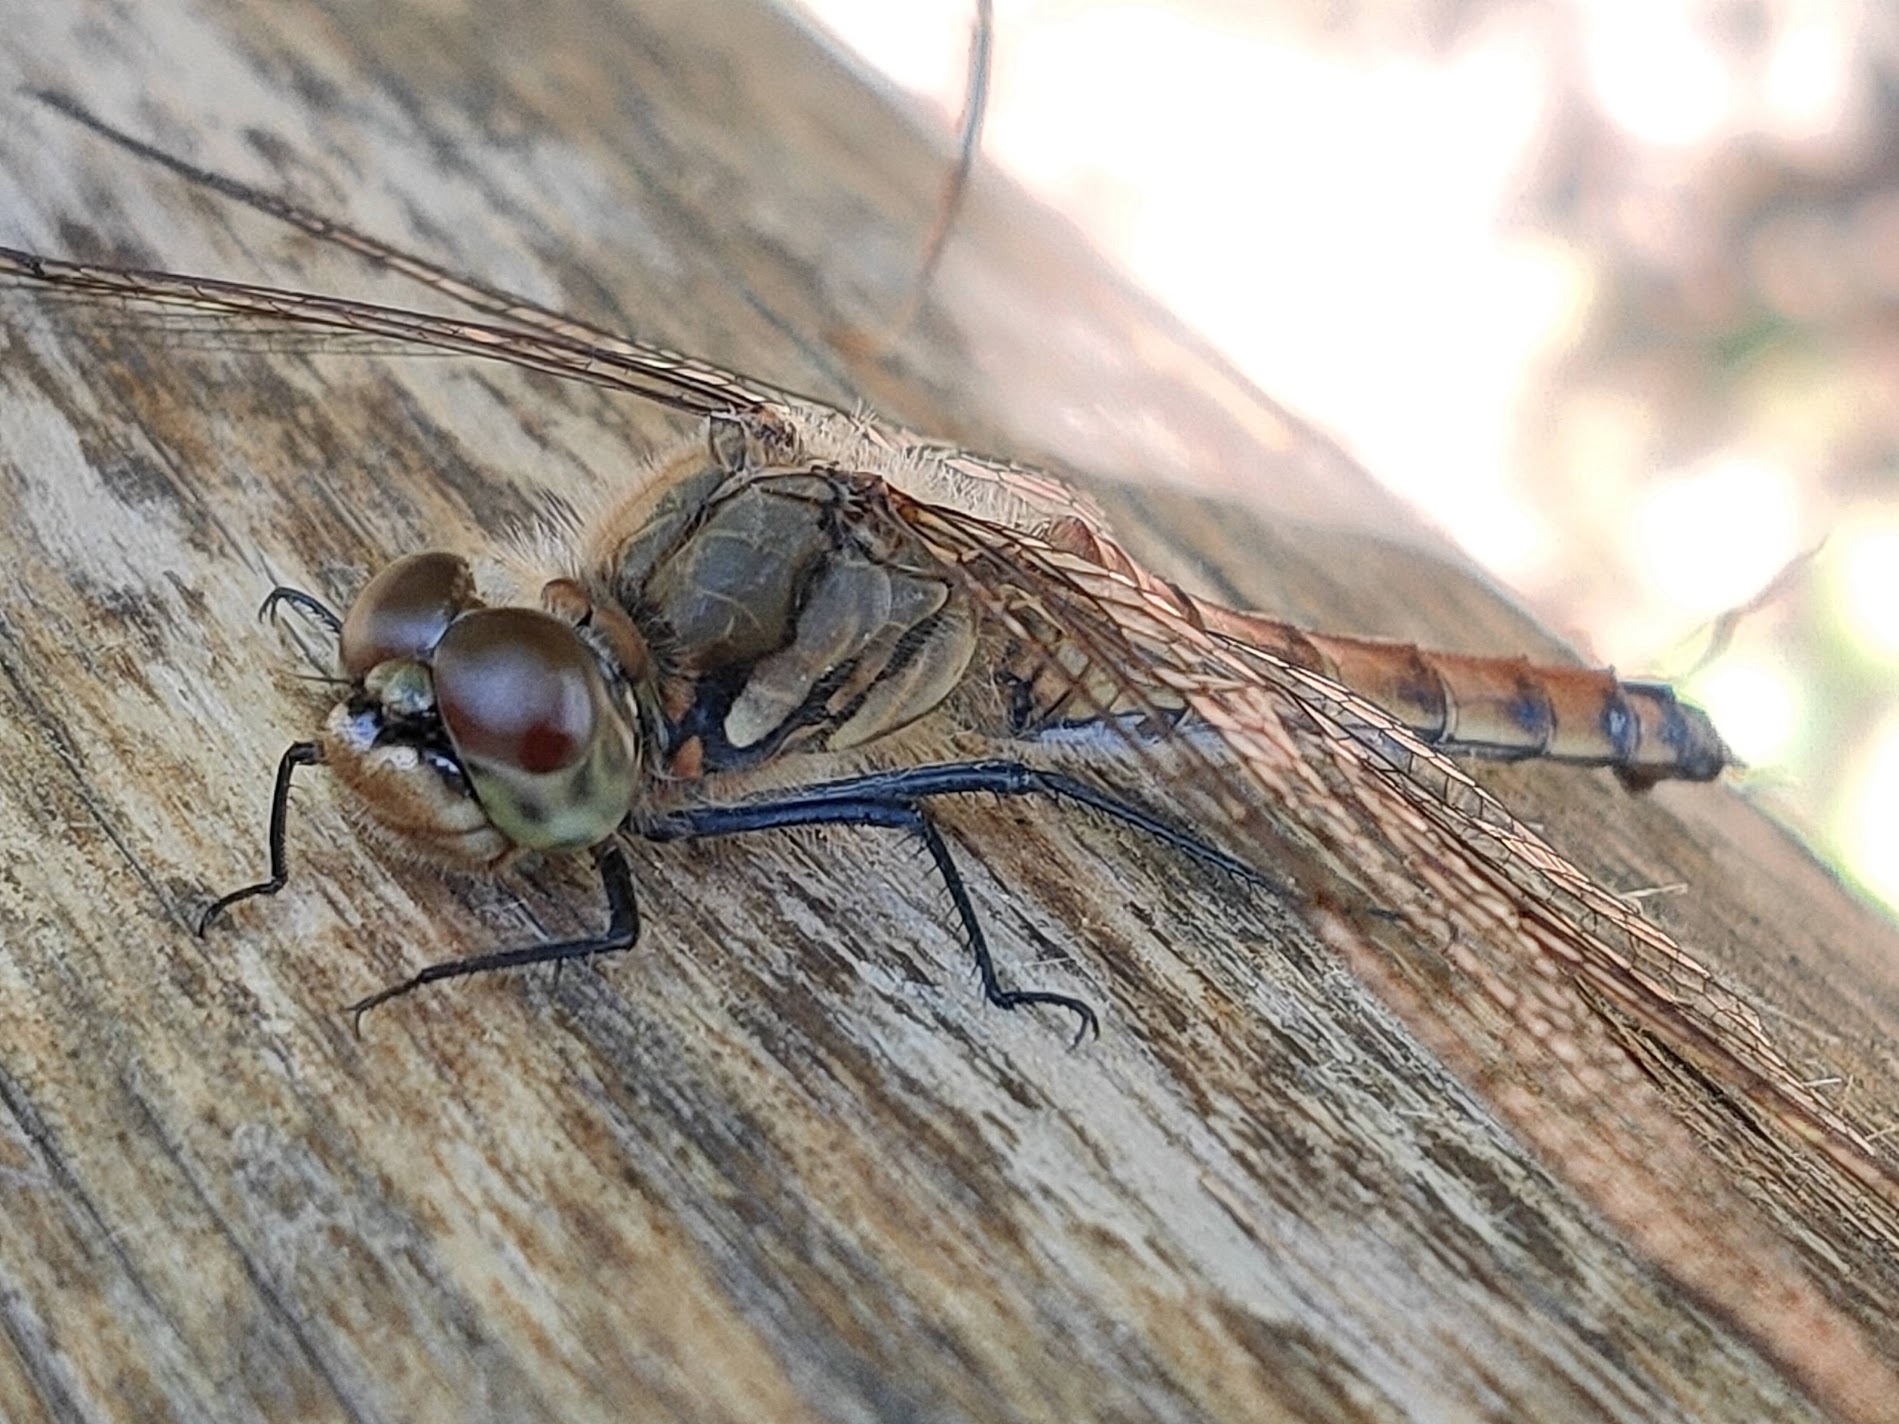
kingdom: Animalia
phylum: Arthropoda
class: Insecta
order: Odonata
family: Libellulidae
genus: Sympetrum
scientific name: Sympetrum frequens
